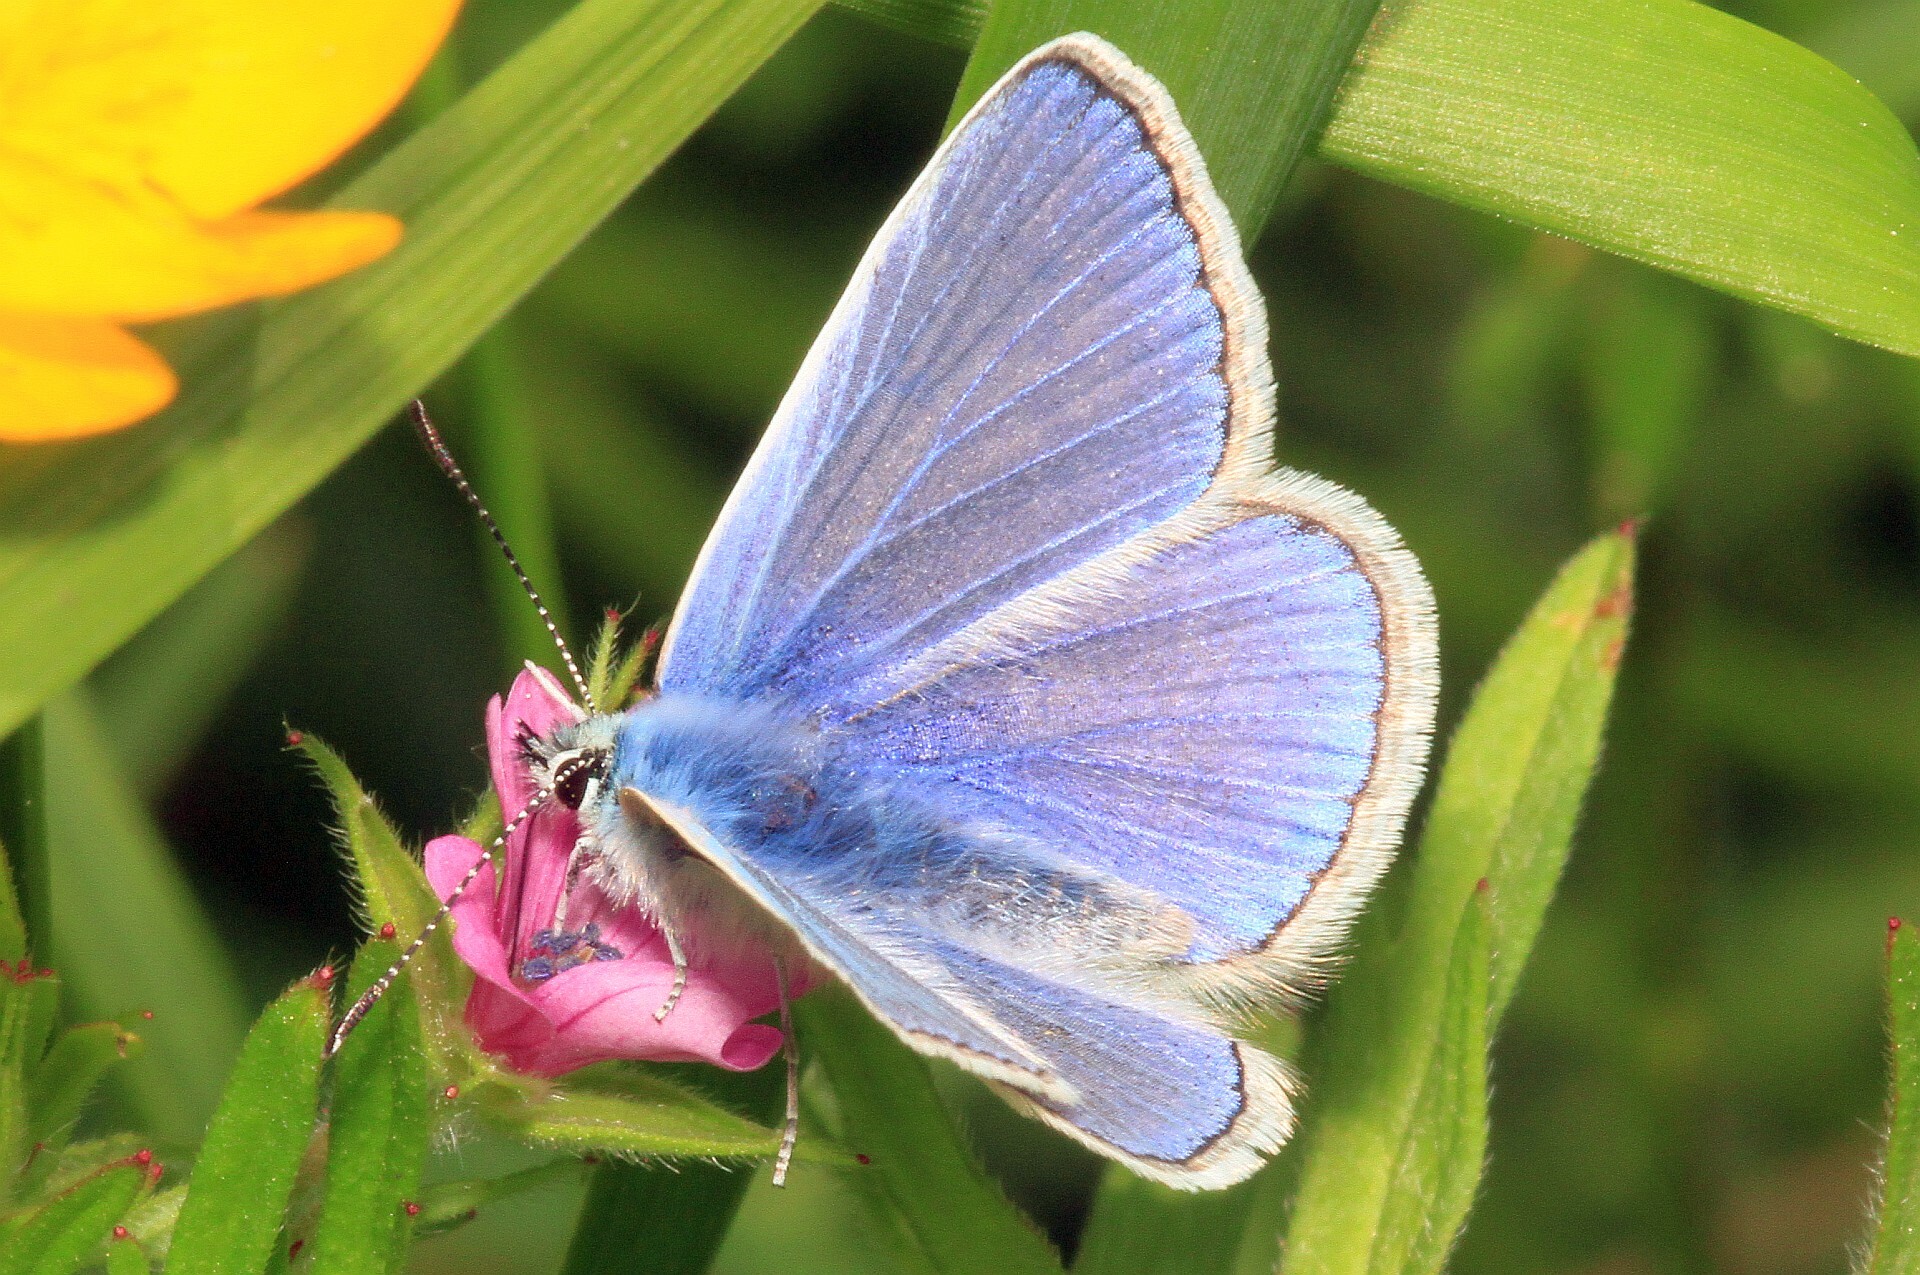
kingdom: Animalia
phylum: Arthropoda
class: Insecta
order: Lepidoptera
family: Lycaenidae
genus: Polyommatus
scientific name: Polyommatus icarus
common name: Common blue
